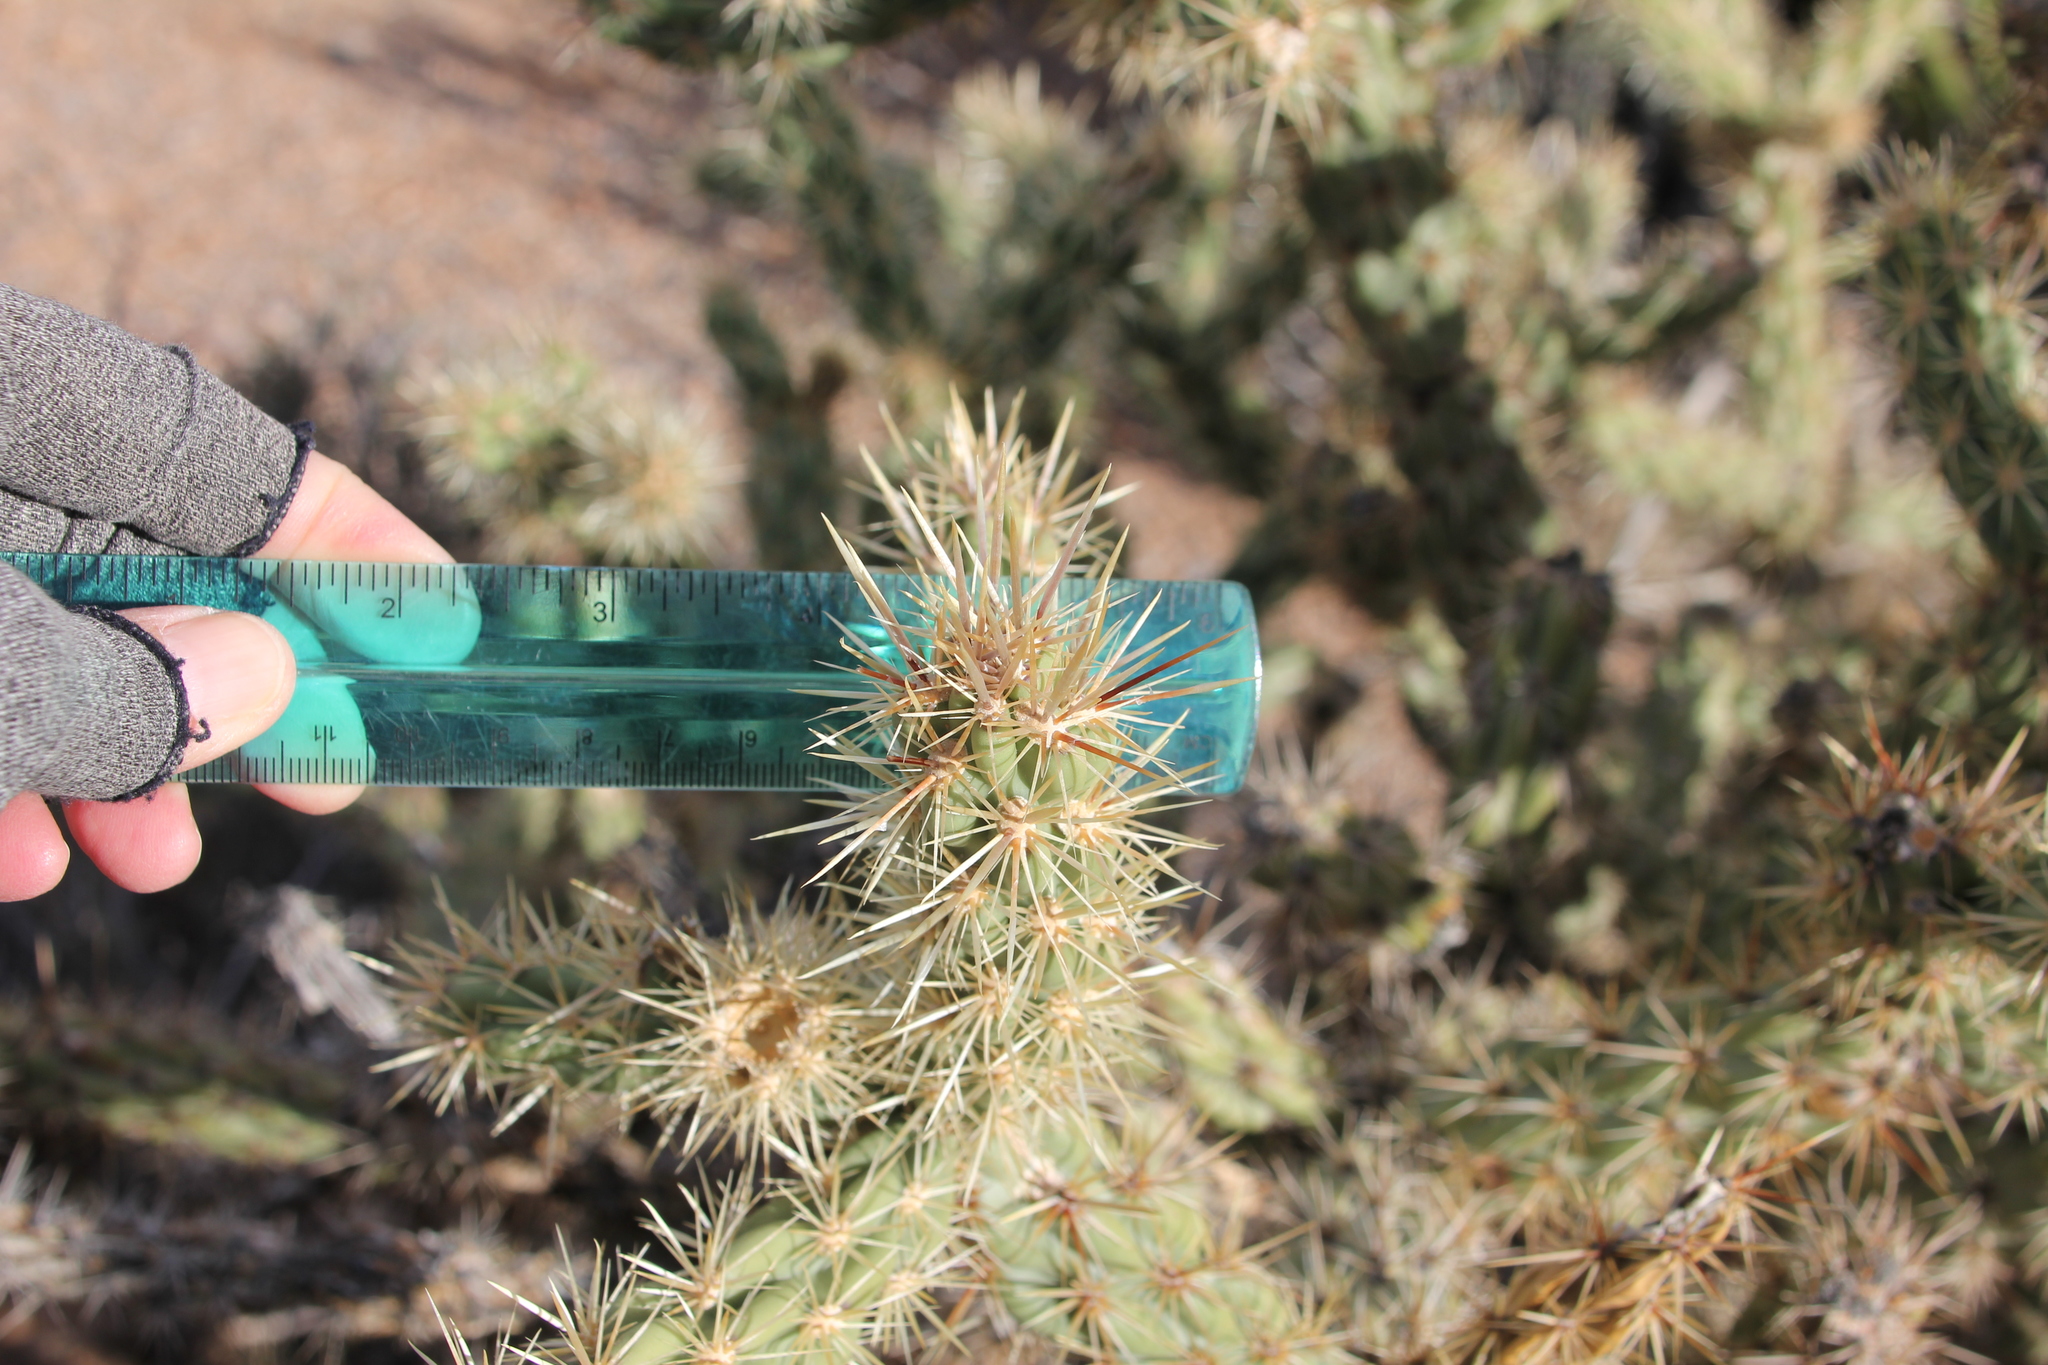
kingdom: Plantae
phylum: Tracheophyta
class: Magnoliopsida
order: Caryophyllales
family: Cactaceae
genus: Cylindropuntia
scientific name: Cylindropuntia acanthocarpa
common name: Buckhorn cholla
